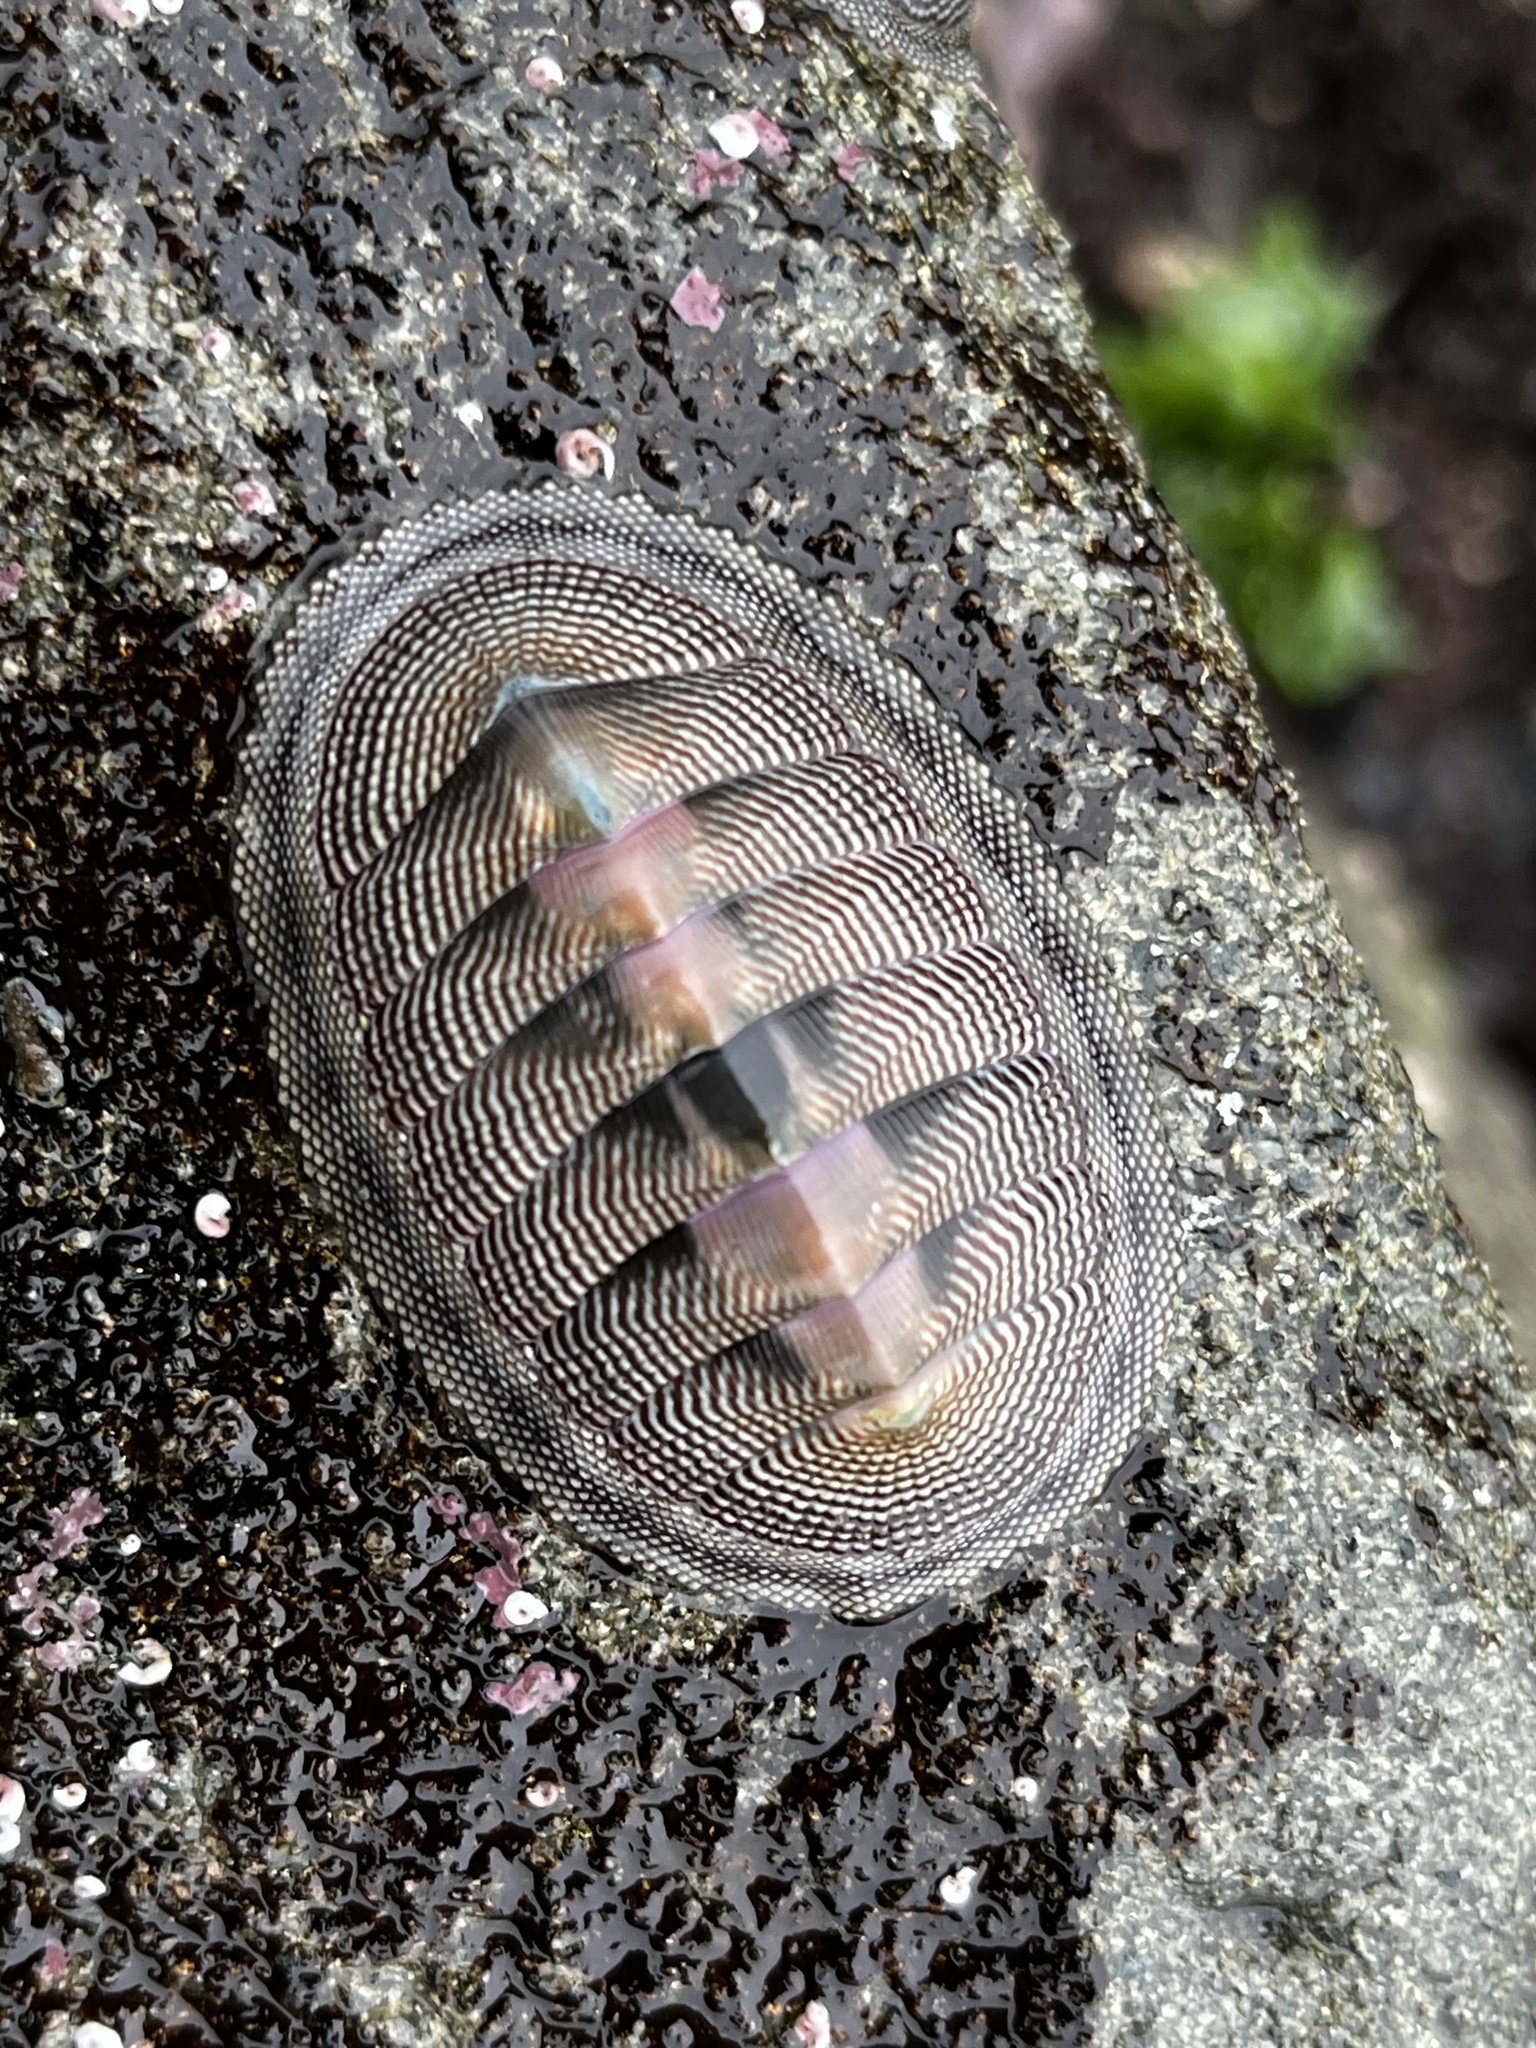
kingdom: Animalia
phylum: Mollusca
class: Polyplacophora
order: Chitonida
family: Chitonidae
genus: Chiton
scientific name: Chiton cumingsii
